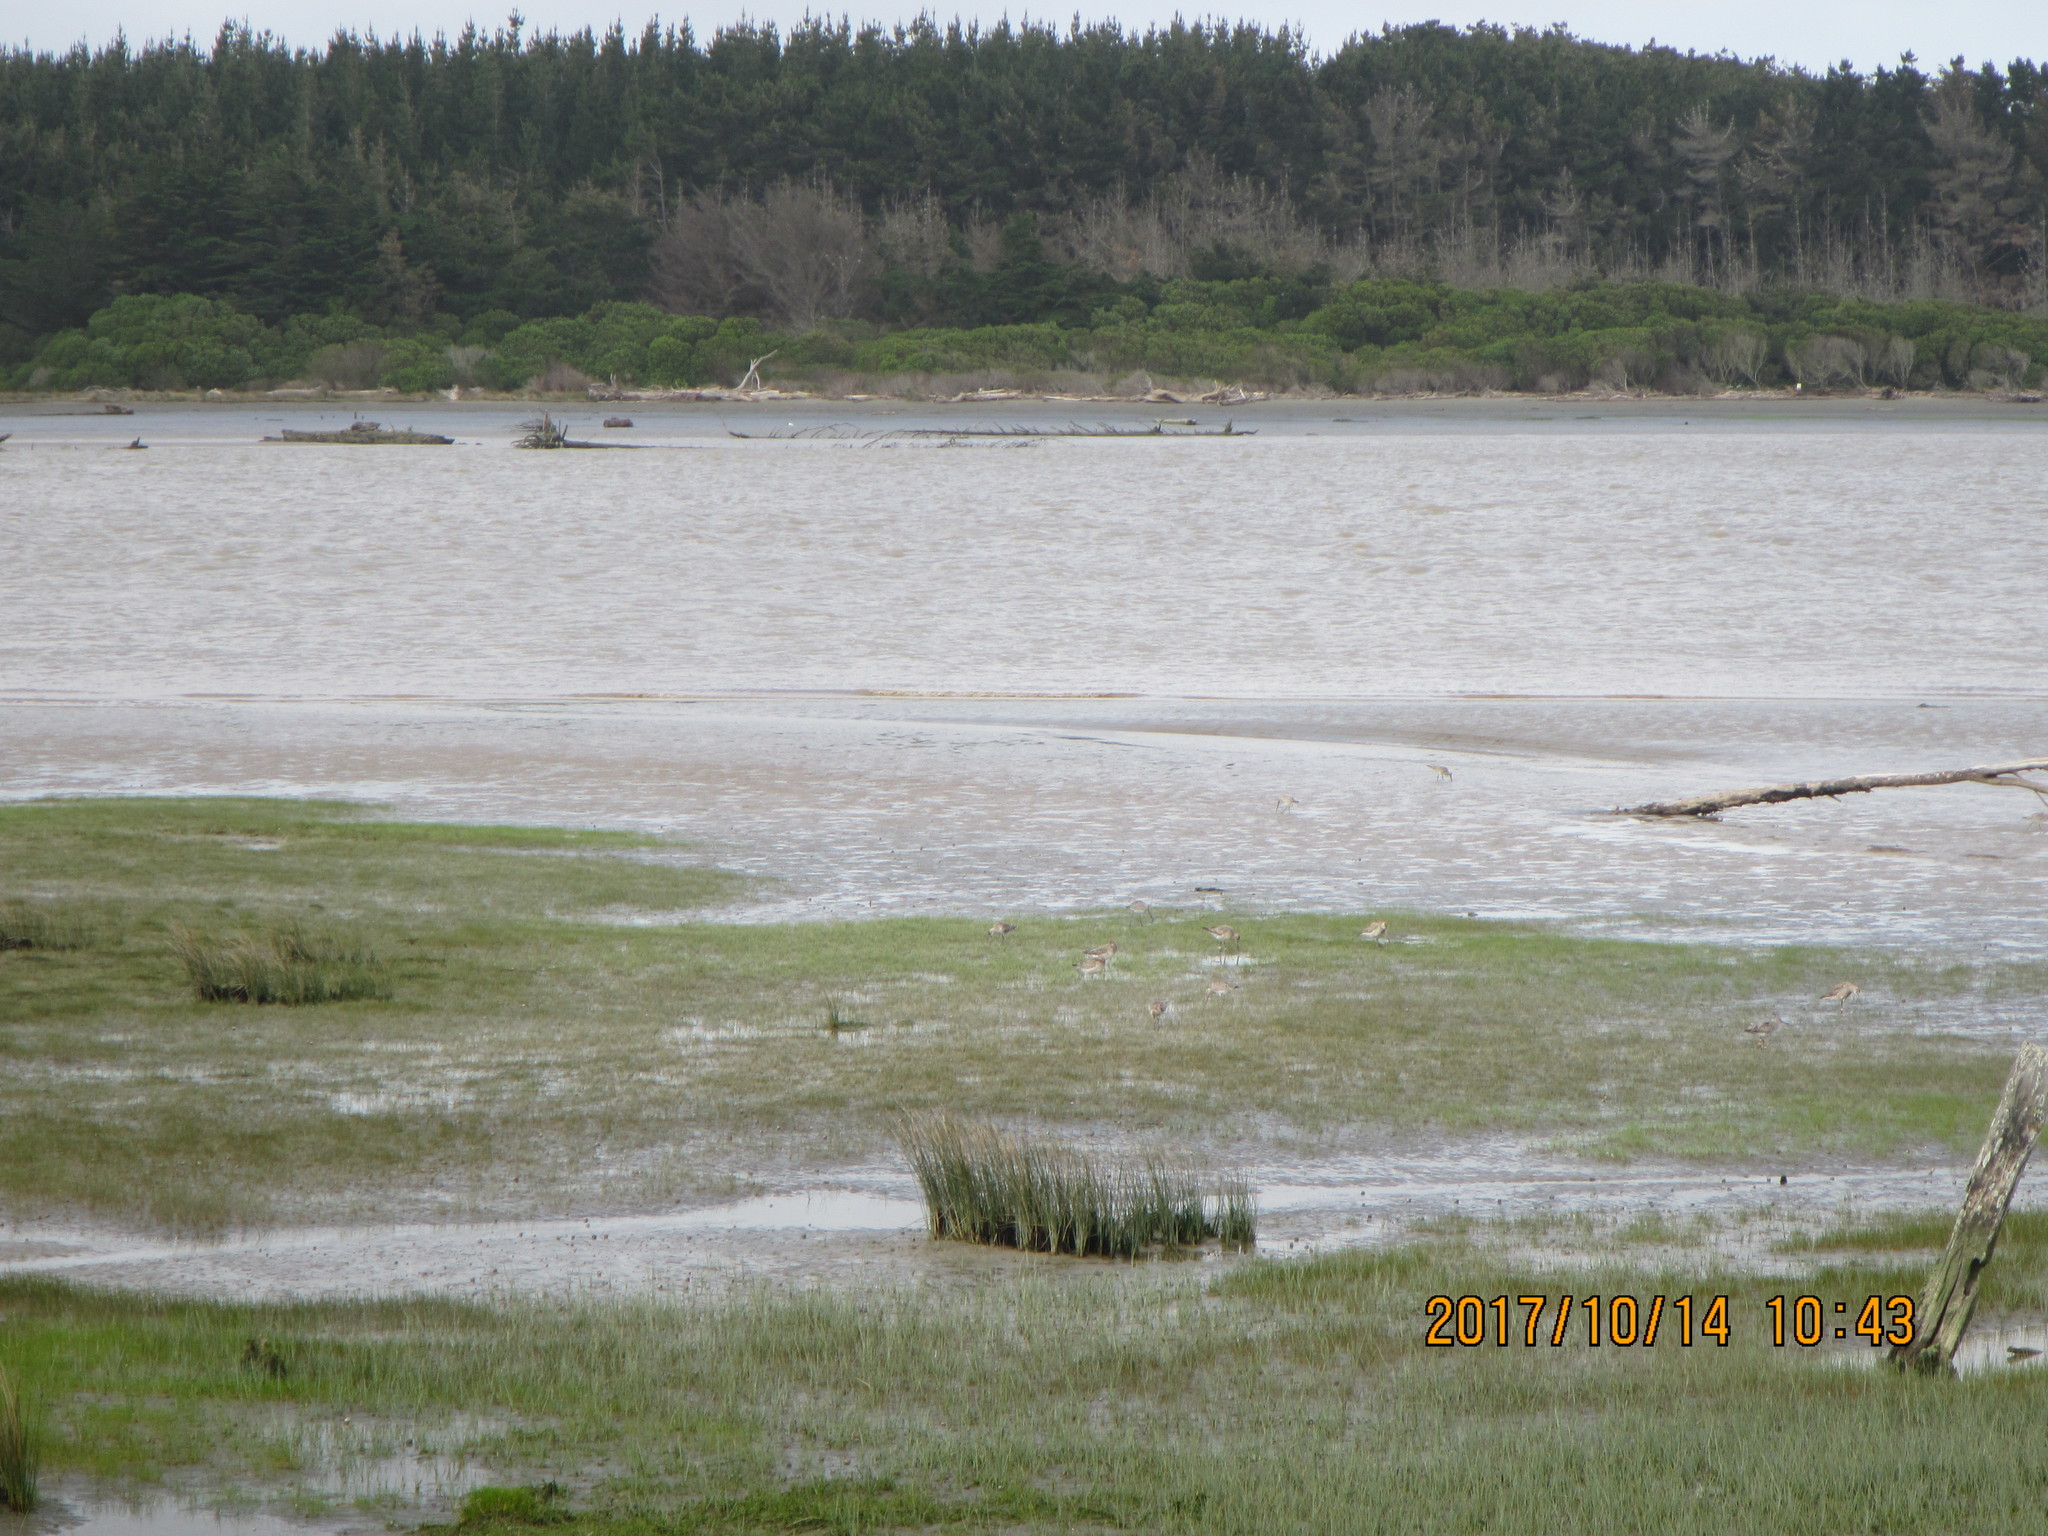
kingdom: Animalia
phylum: Chordata
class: Aves
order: Charadriiformes
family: Scolopacidae
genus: Limosa
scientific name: Limosa lapponica
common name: Bar-tailed godwit
